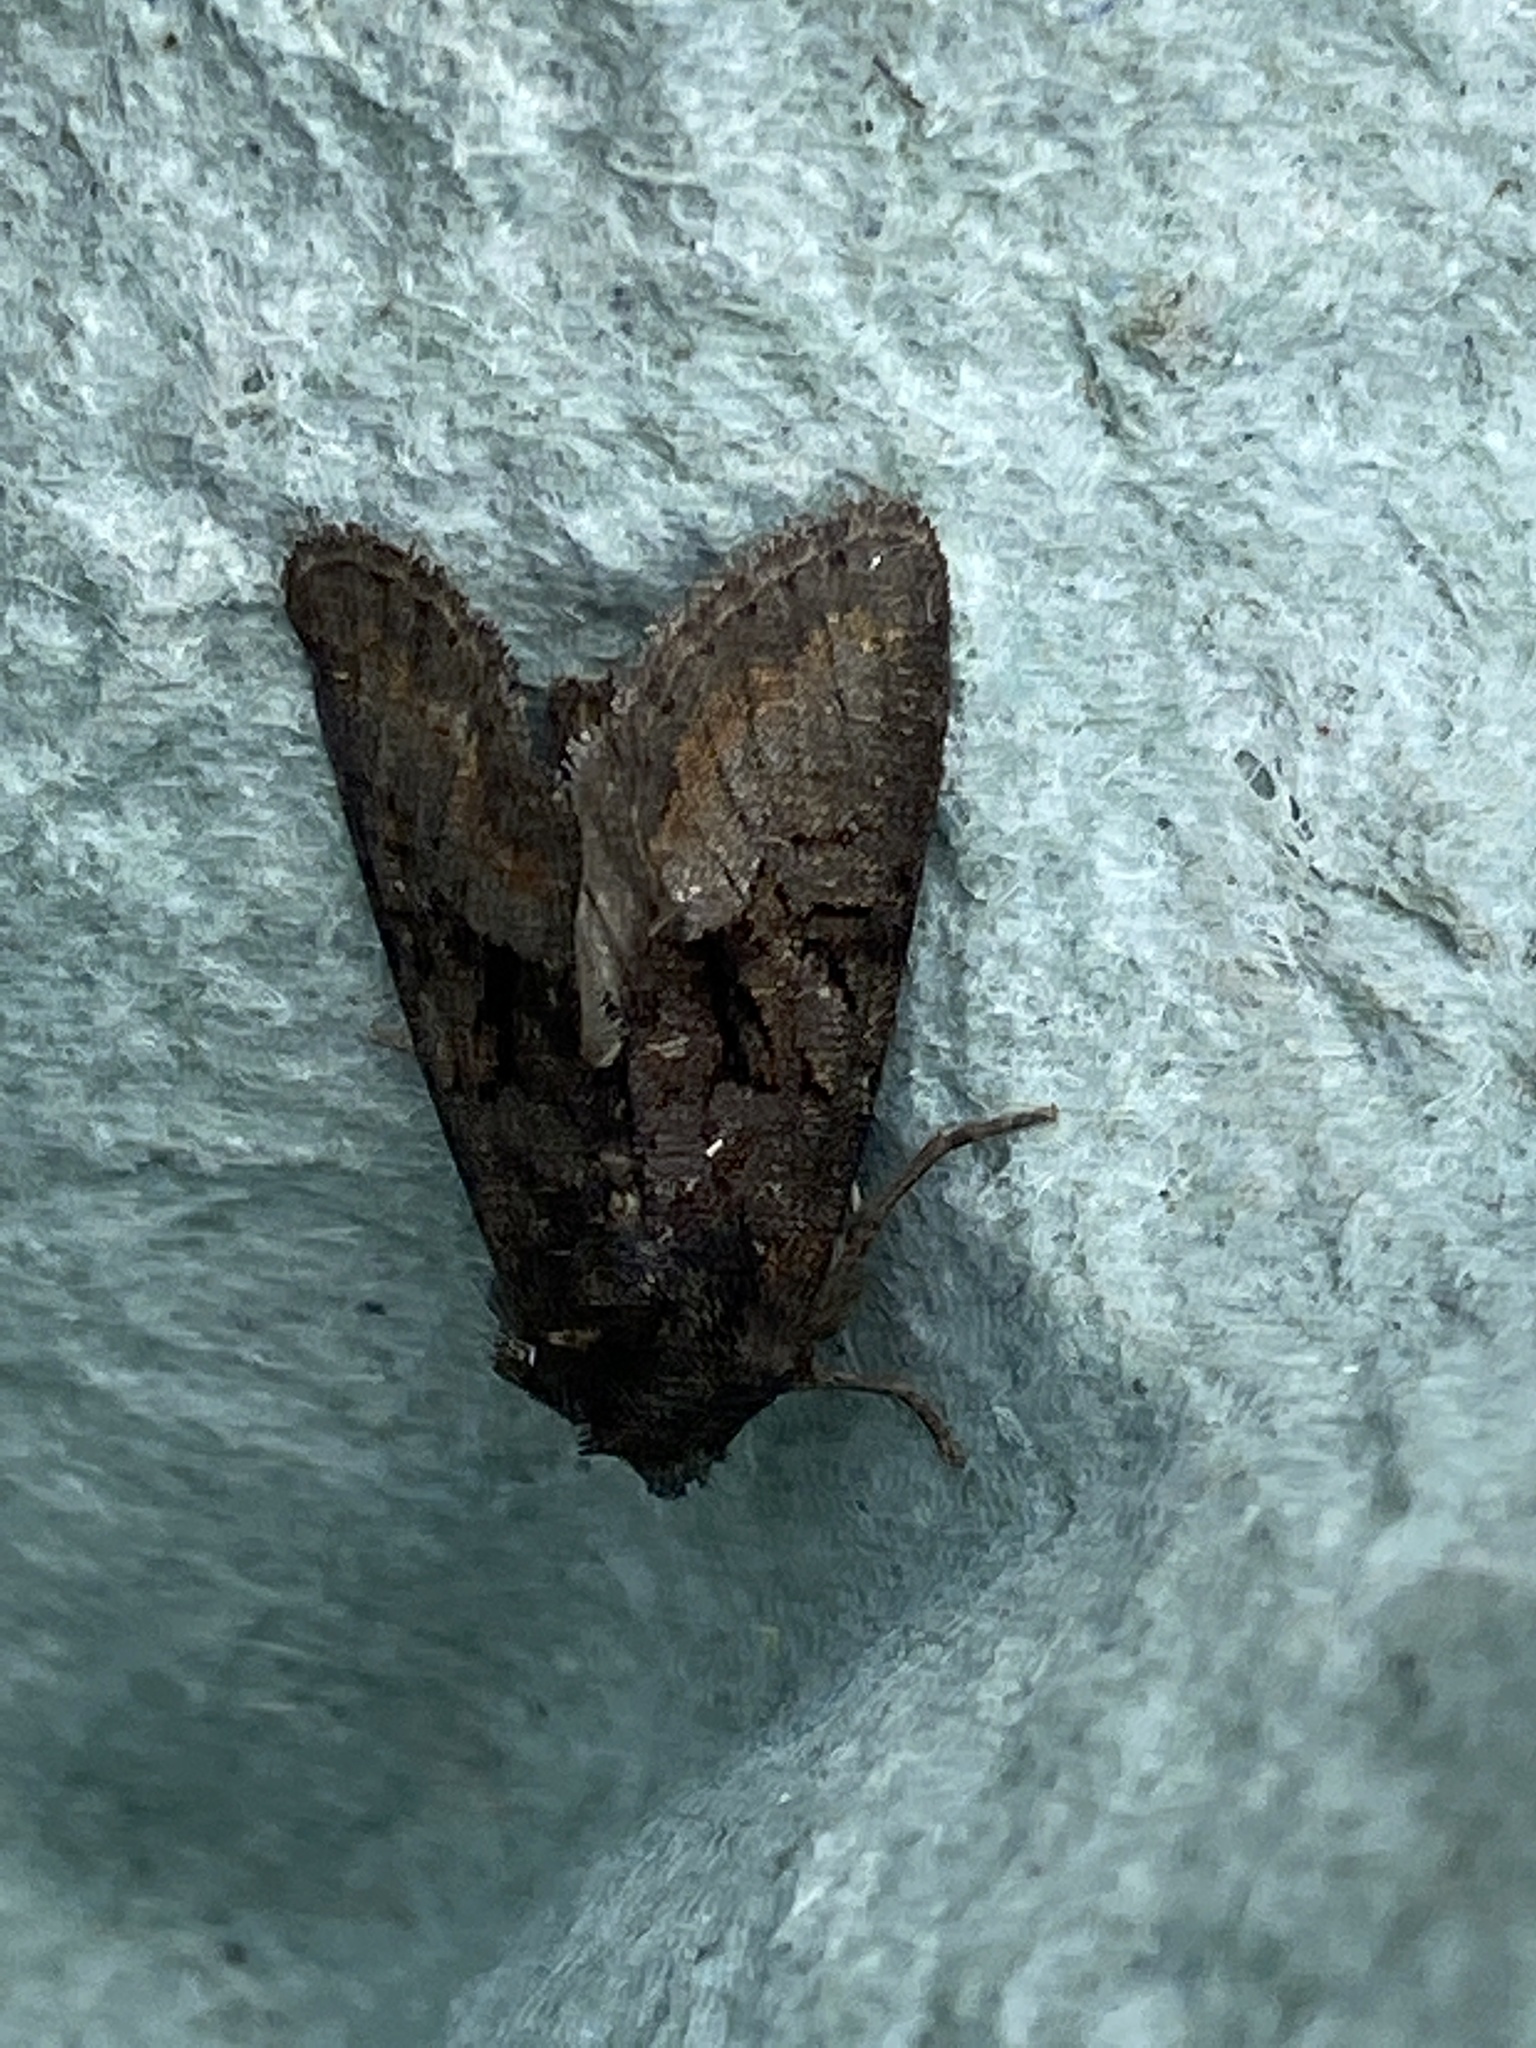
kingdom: Animalia
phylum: Arthropoda
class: Insecta
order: Lepidoptera
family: Noctuidae
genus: Mesapamea
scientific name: Mesapamea
